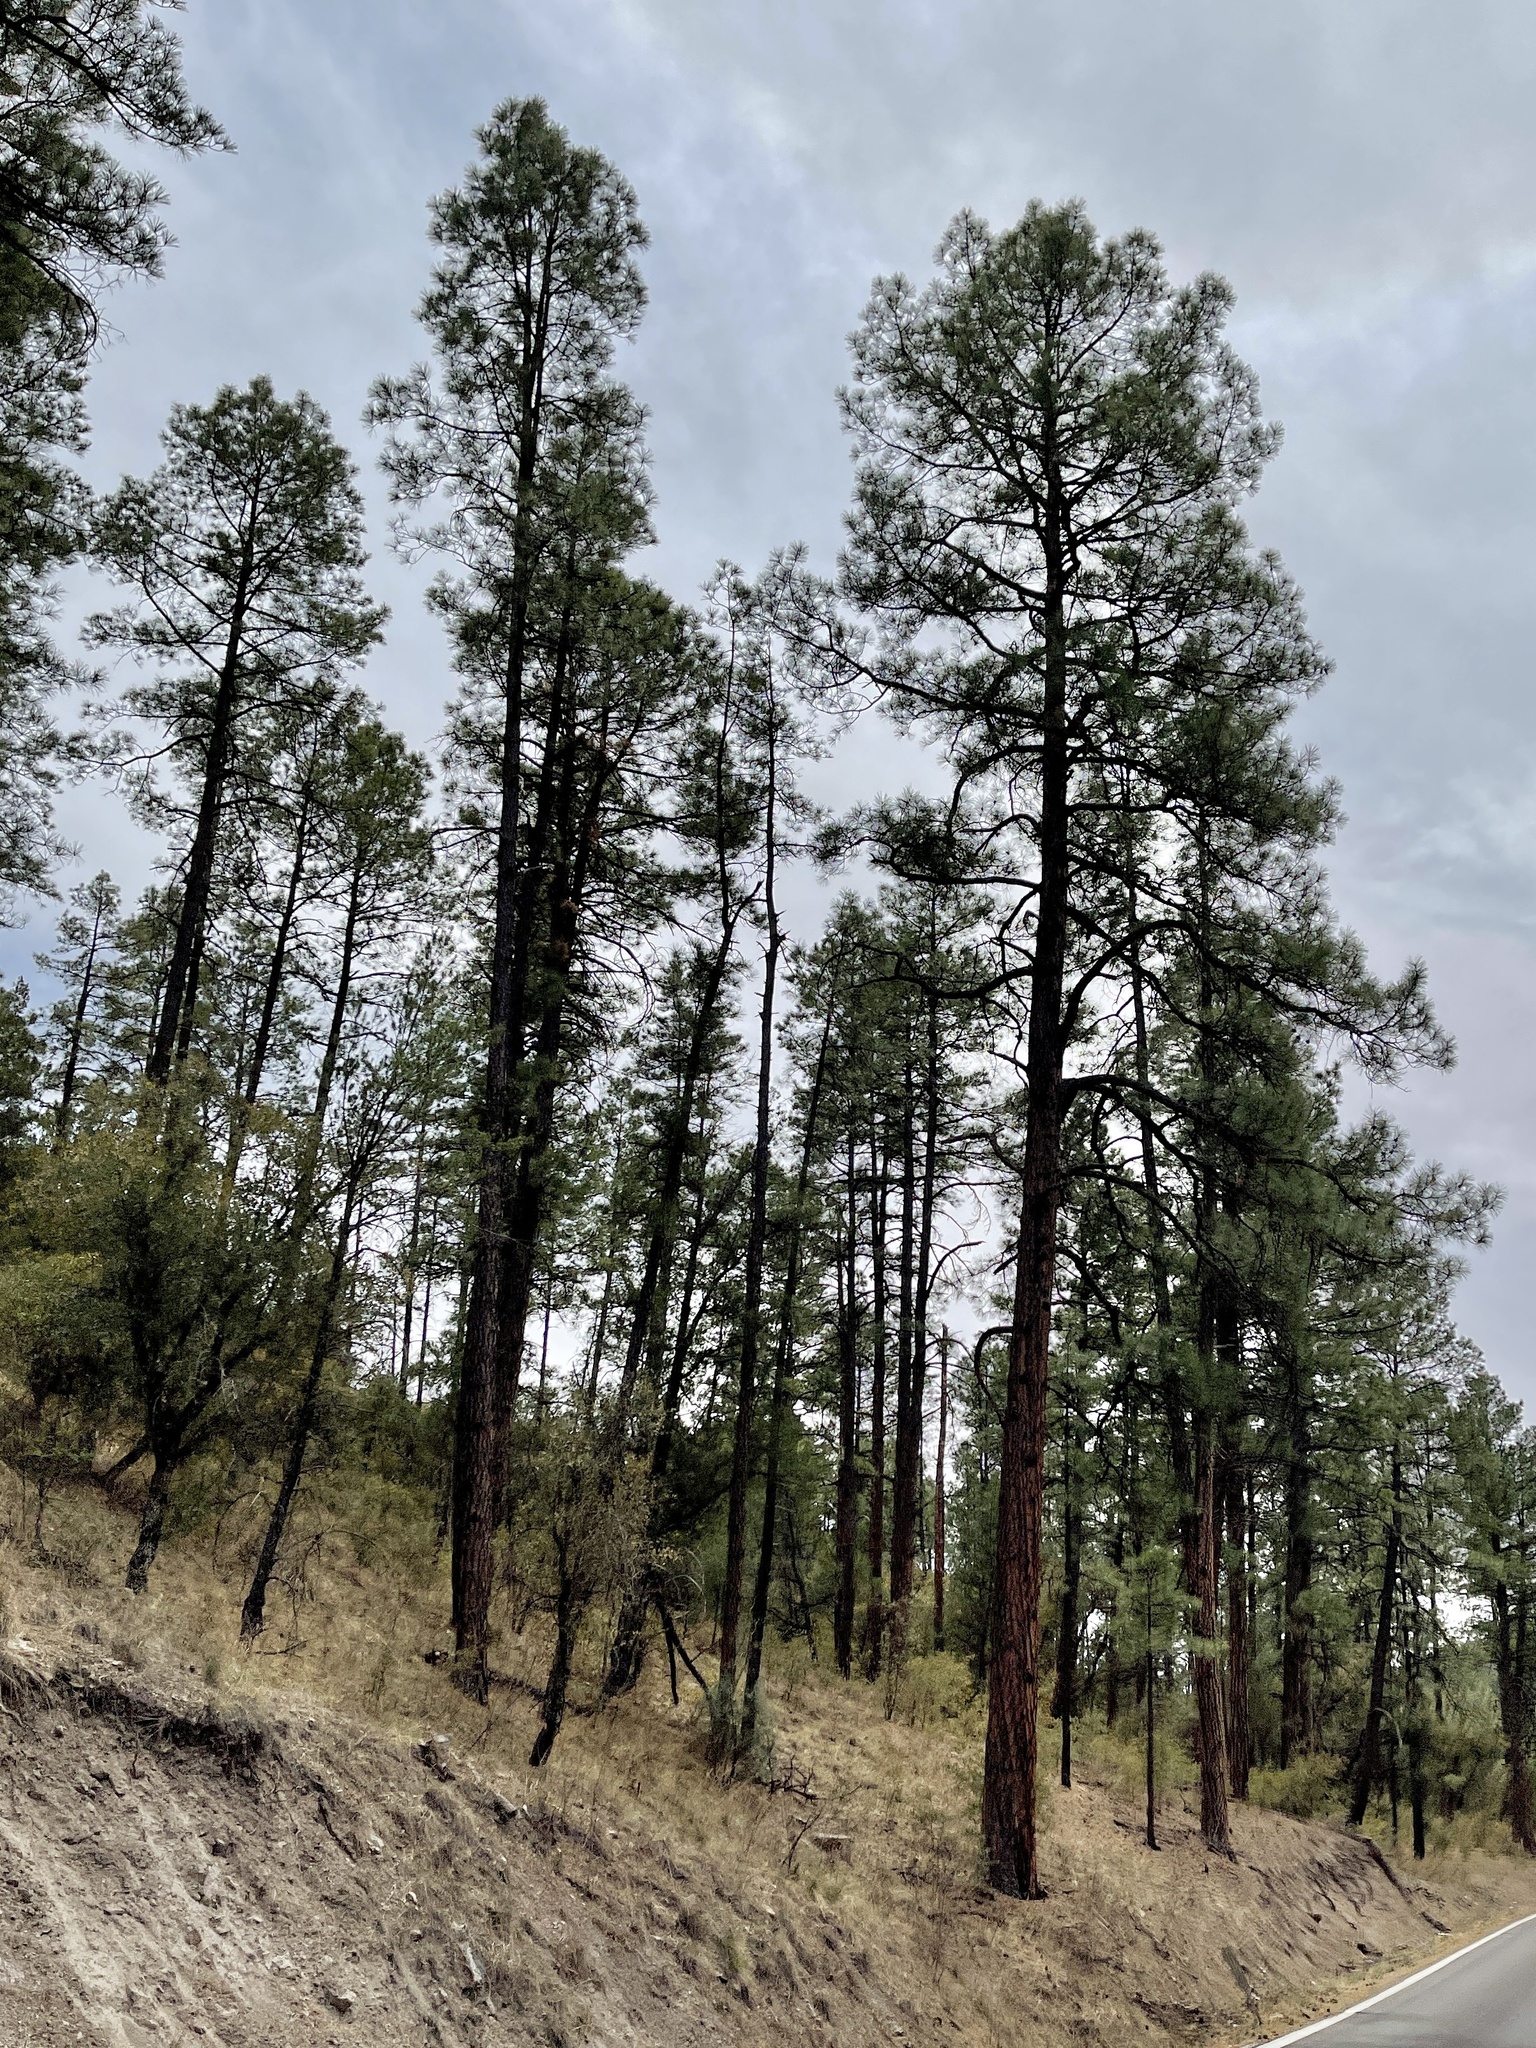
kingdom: Plantae
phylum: Tracheophyta
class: Pinopsida
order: Pinales
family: Pinaceae
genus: Pinus
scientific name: Pinus ponderosa
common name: Western yellow-pine
